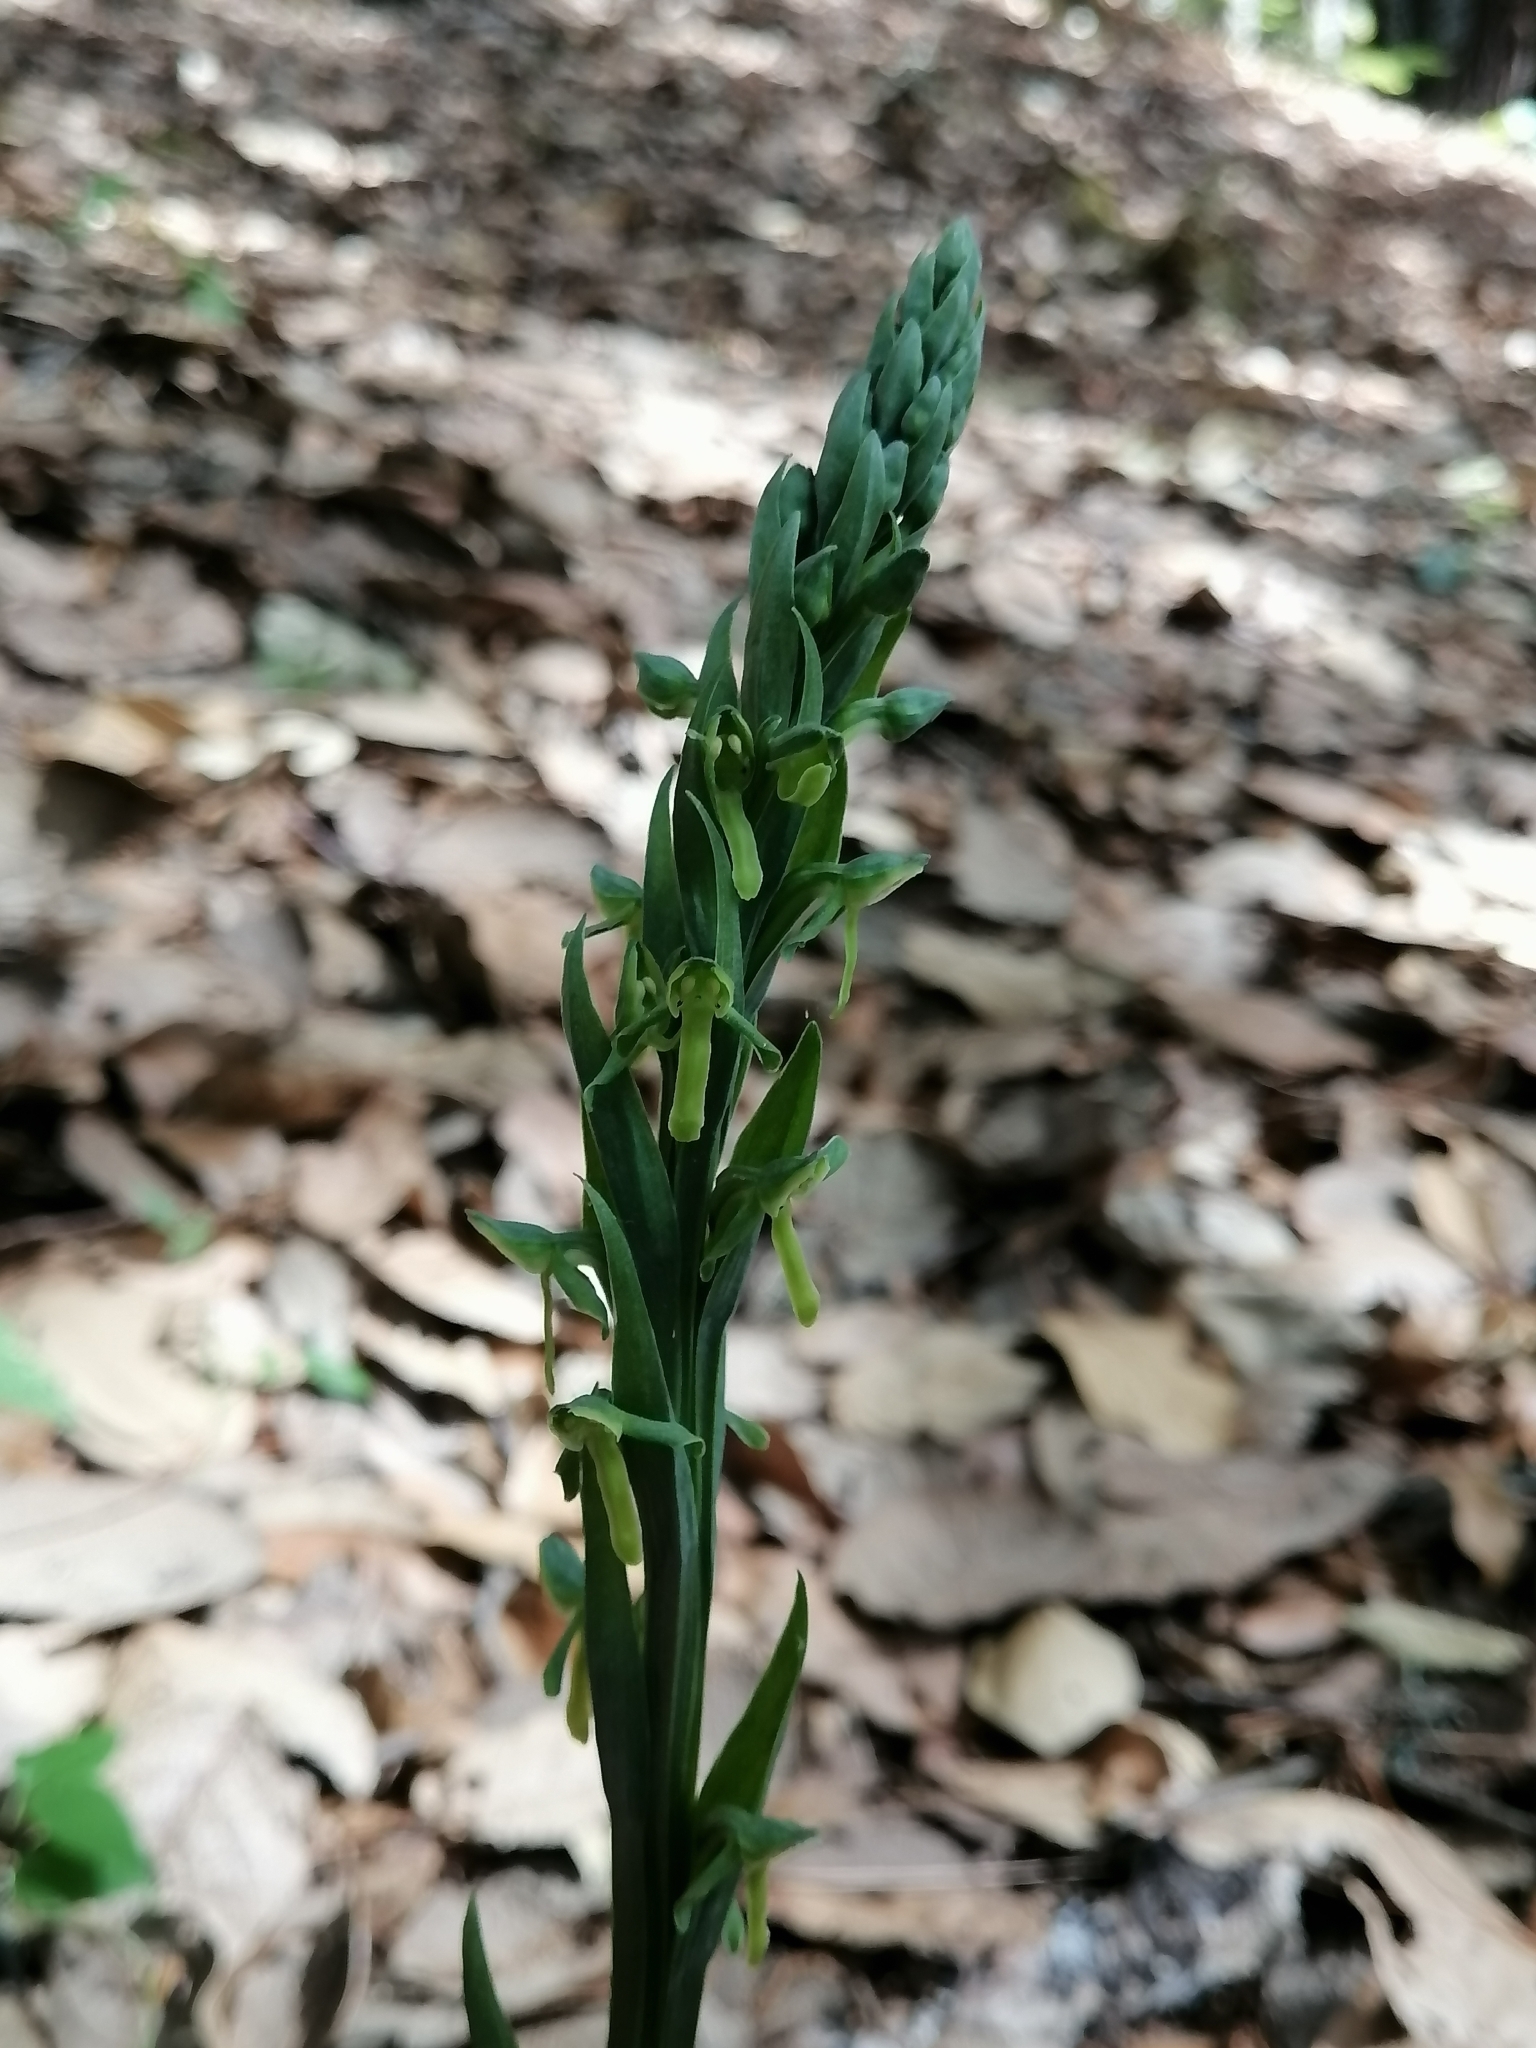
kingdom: Plantae
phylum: Tracheophyta
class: Liliopsida
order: Asparagales
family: Orchidaceae
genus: Platanthera
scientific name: Platanthera brevifolia
